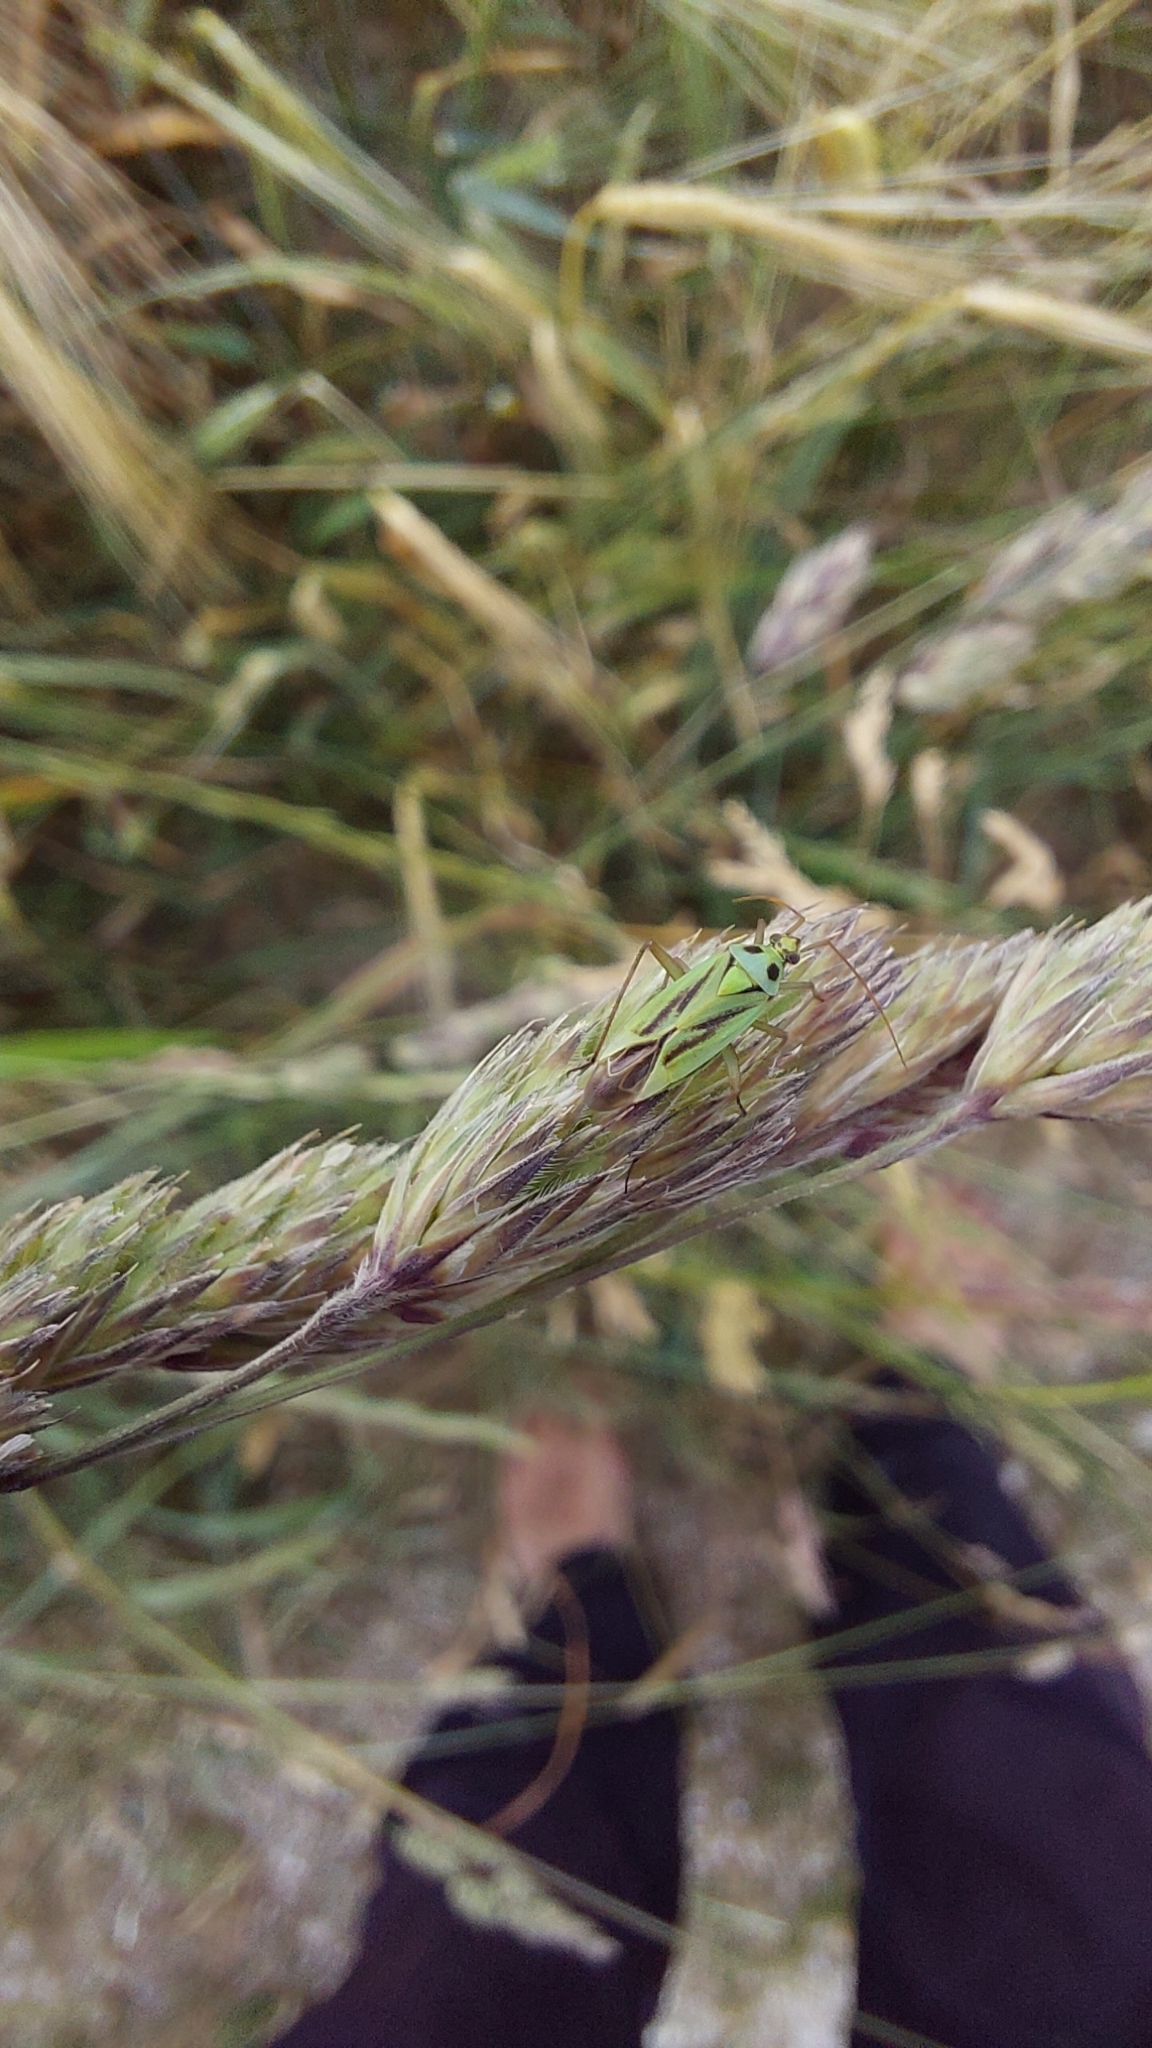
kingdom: Animalia
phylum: Arthropoda
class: Insecta
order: Hemiptera
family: Miridae
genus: Stenotus
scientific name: Stenotus binotatus
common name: Plant bug
